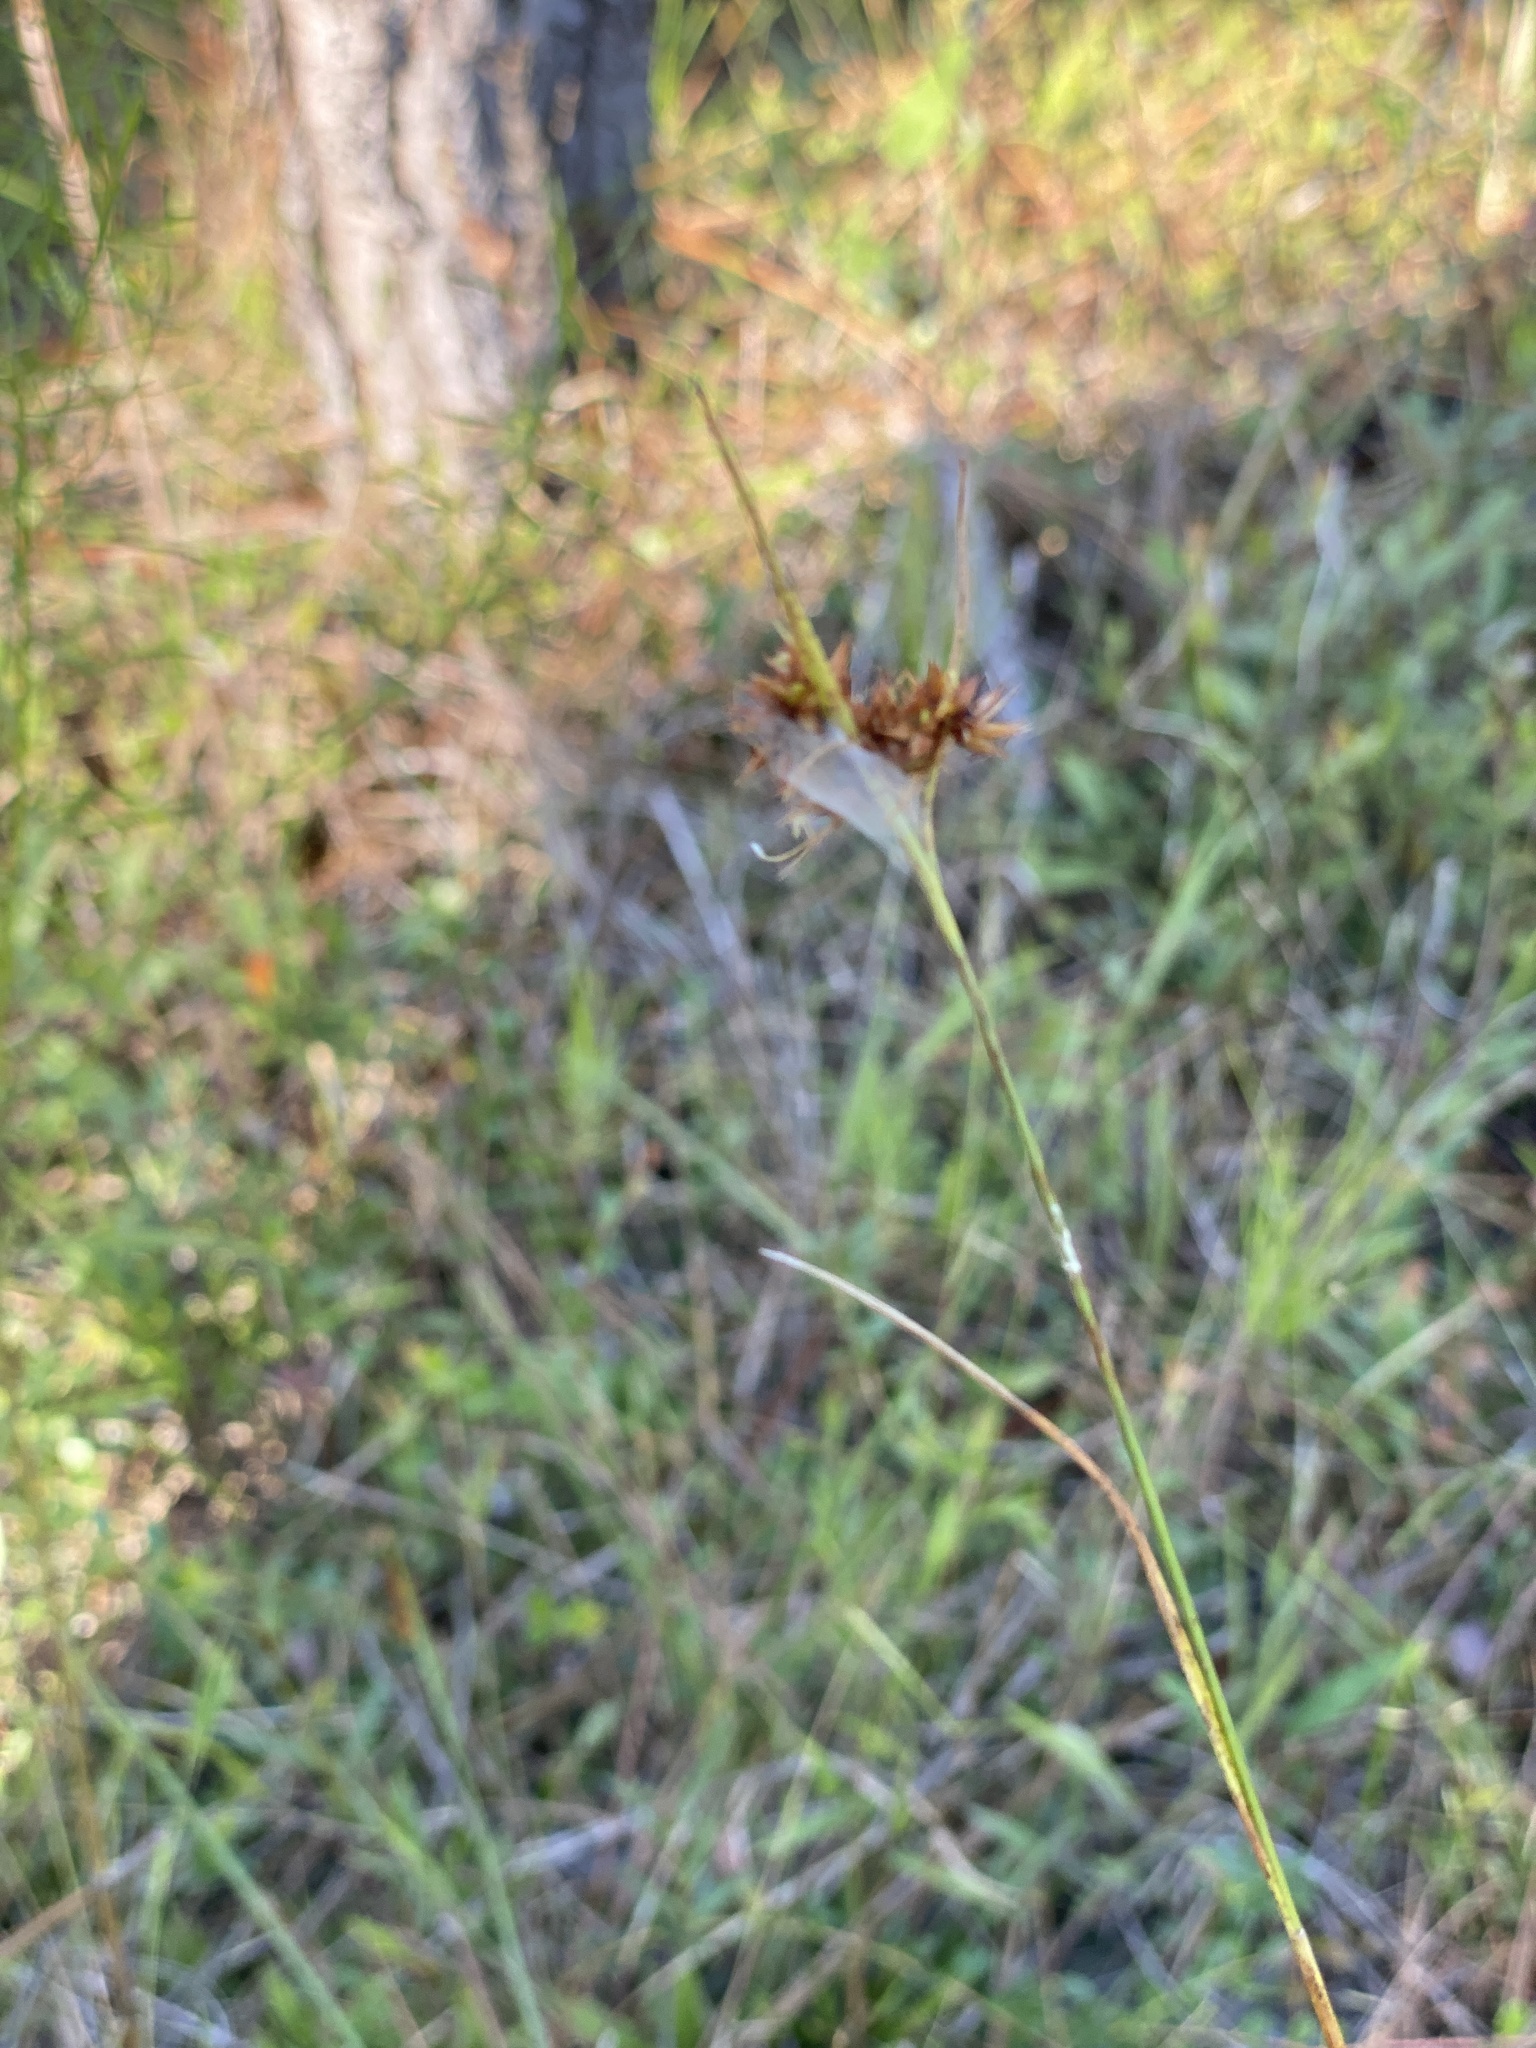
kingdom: Plantae
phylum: Tracheophyta
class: Liliopsida
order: Poales
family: Cyperaceae
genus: Rhynchospora
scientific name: Rhynchospora fascicularis
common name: Fascicled beak sedge
